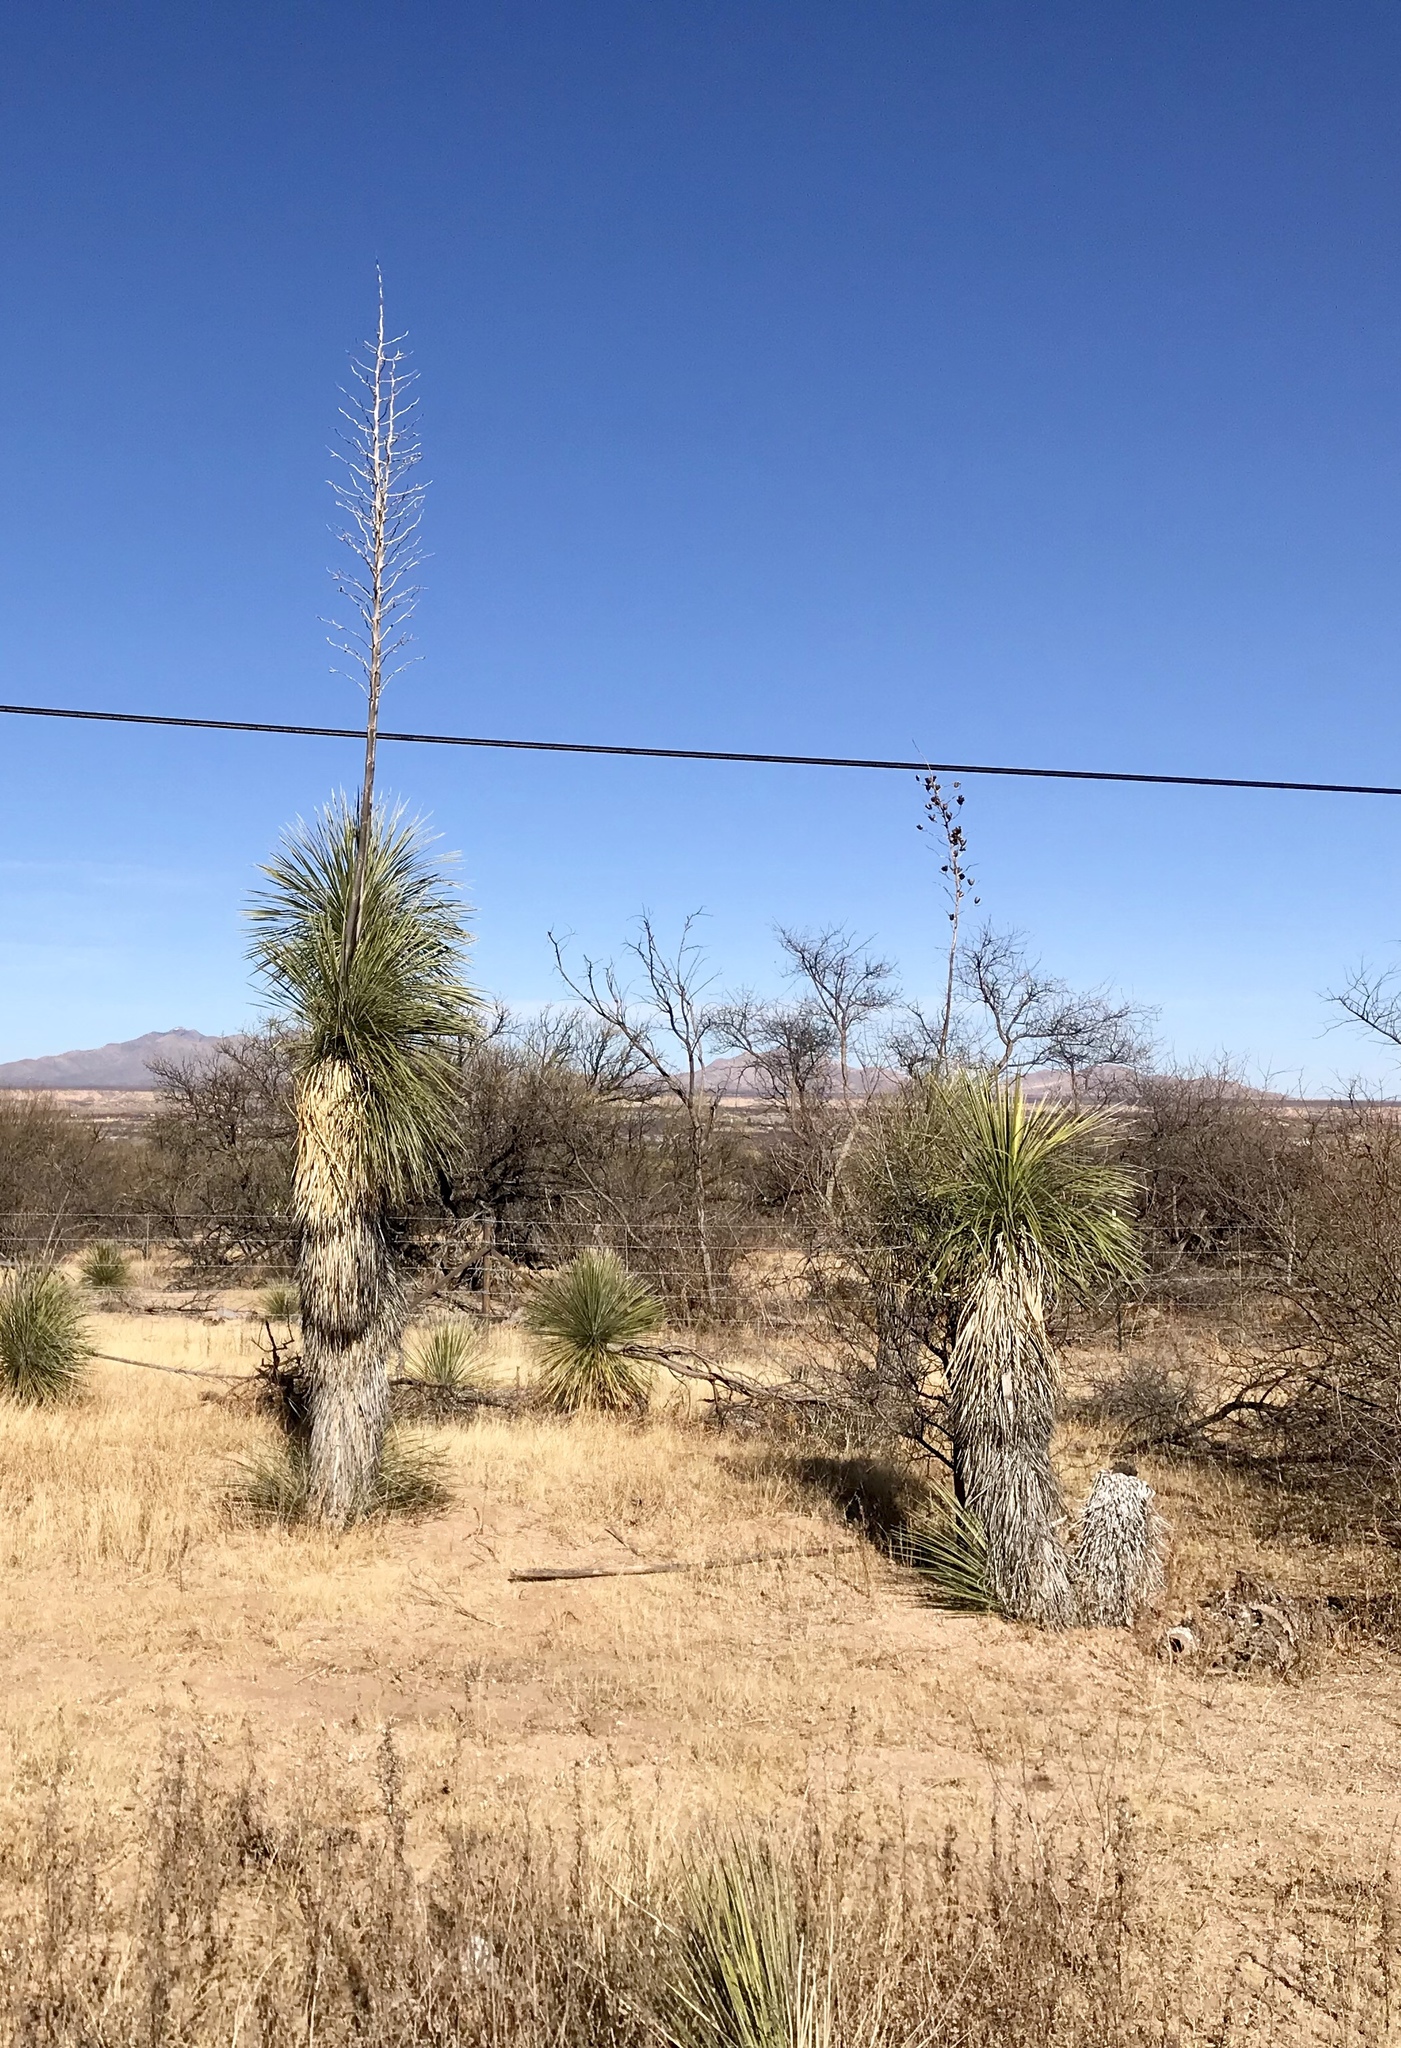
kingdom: Plantae
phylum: Tracheophyta
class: Liliopsida
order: Asparagales
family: Asparagaceae
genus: Yucca
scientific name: Yucca elata
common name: Palmella
